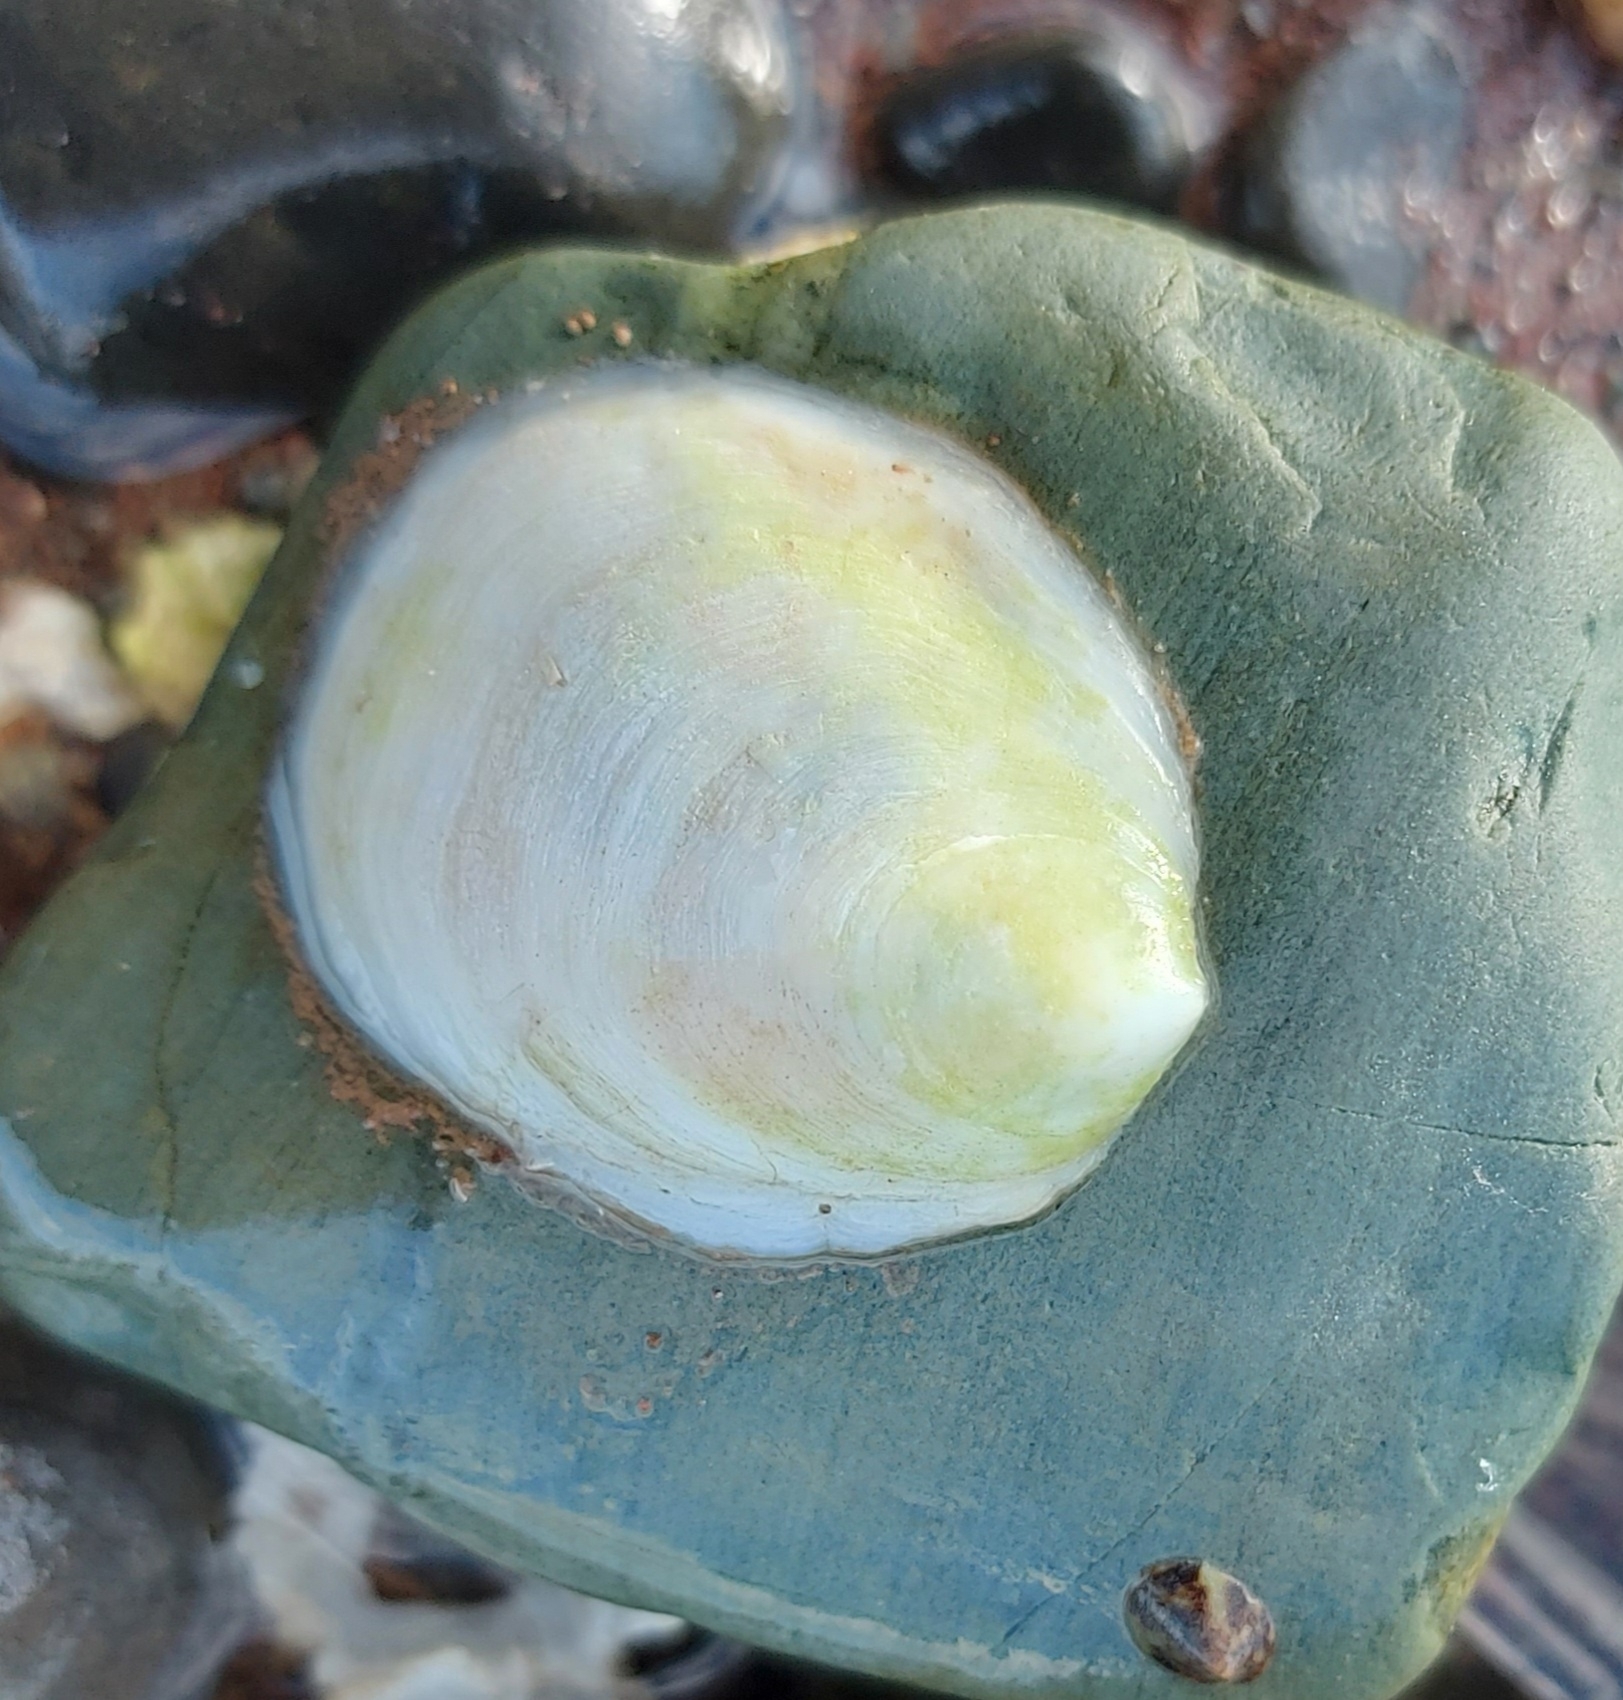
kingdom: Animalia
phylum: Mollusca
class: Gastropoda
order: Littorinimorpha
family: Calyptraeidae
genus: Crepidula
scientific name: Crepidula plana
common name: Eastern white slippersnail
